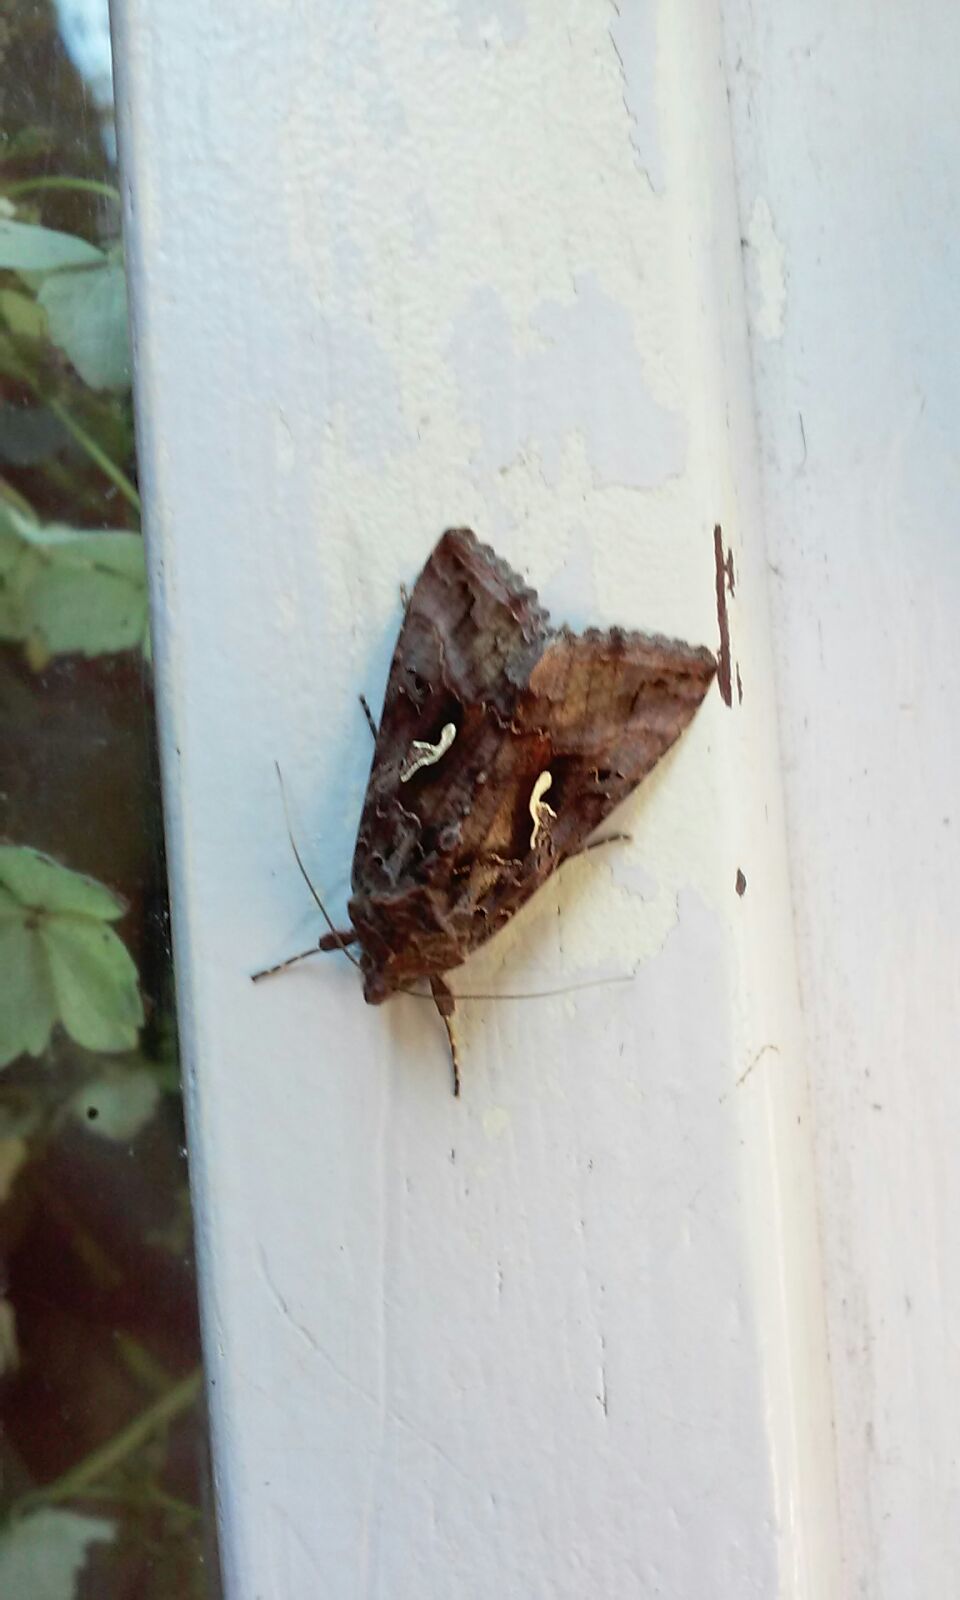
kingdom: Animalia
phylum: Arthropoda
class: Insecta
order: Lepidoptera
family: Noctuidae
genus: Autographa
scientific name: Autographa gamma
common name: Silver y
